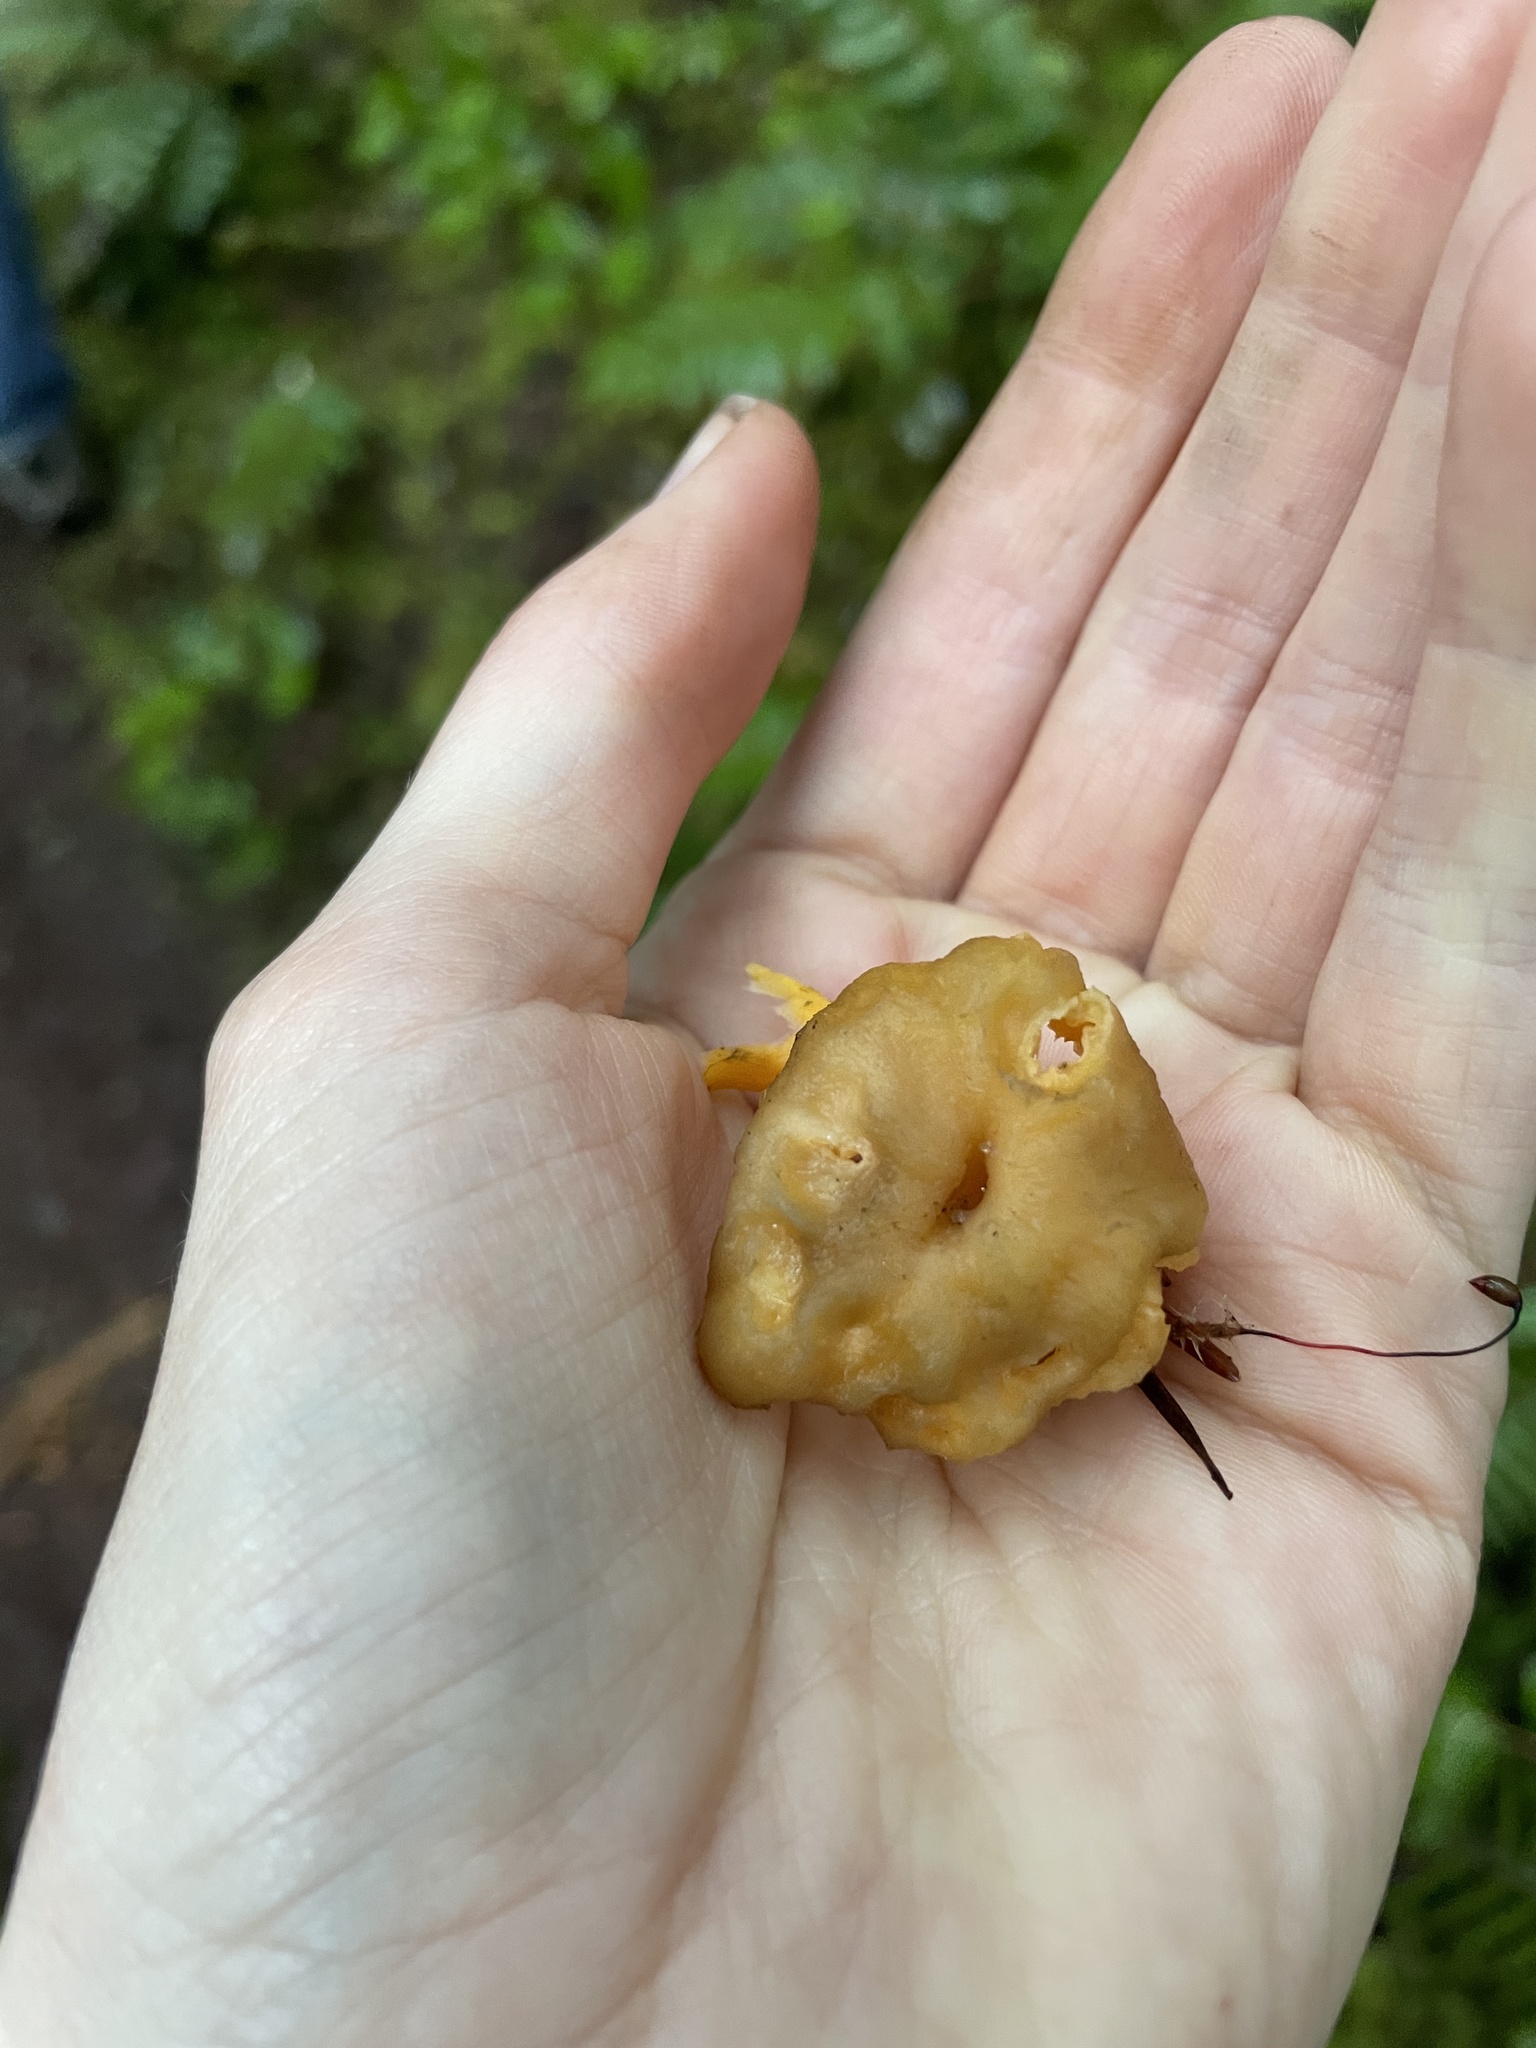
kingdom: Fungi
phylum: Basidiomycota
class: Agaricomycetes
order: Cantharellales
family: Hydnaceae
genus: Craterellus
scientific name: Craterellus tubaeformis
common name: Yellowfoot
